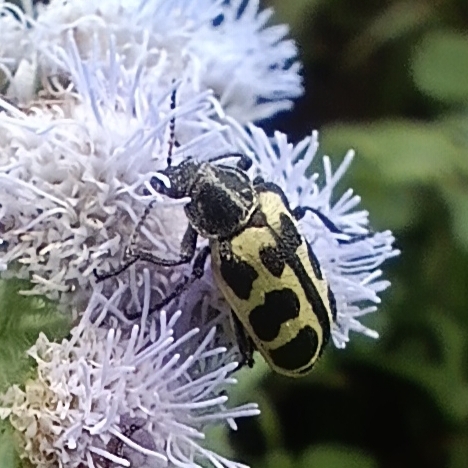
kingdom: Animalia
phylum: Arthropoda
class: Insecta
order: Coleoptera
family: Melyridae
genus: Astylus
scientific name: Astylus atromaculatus
